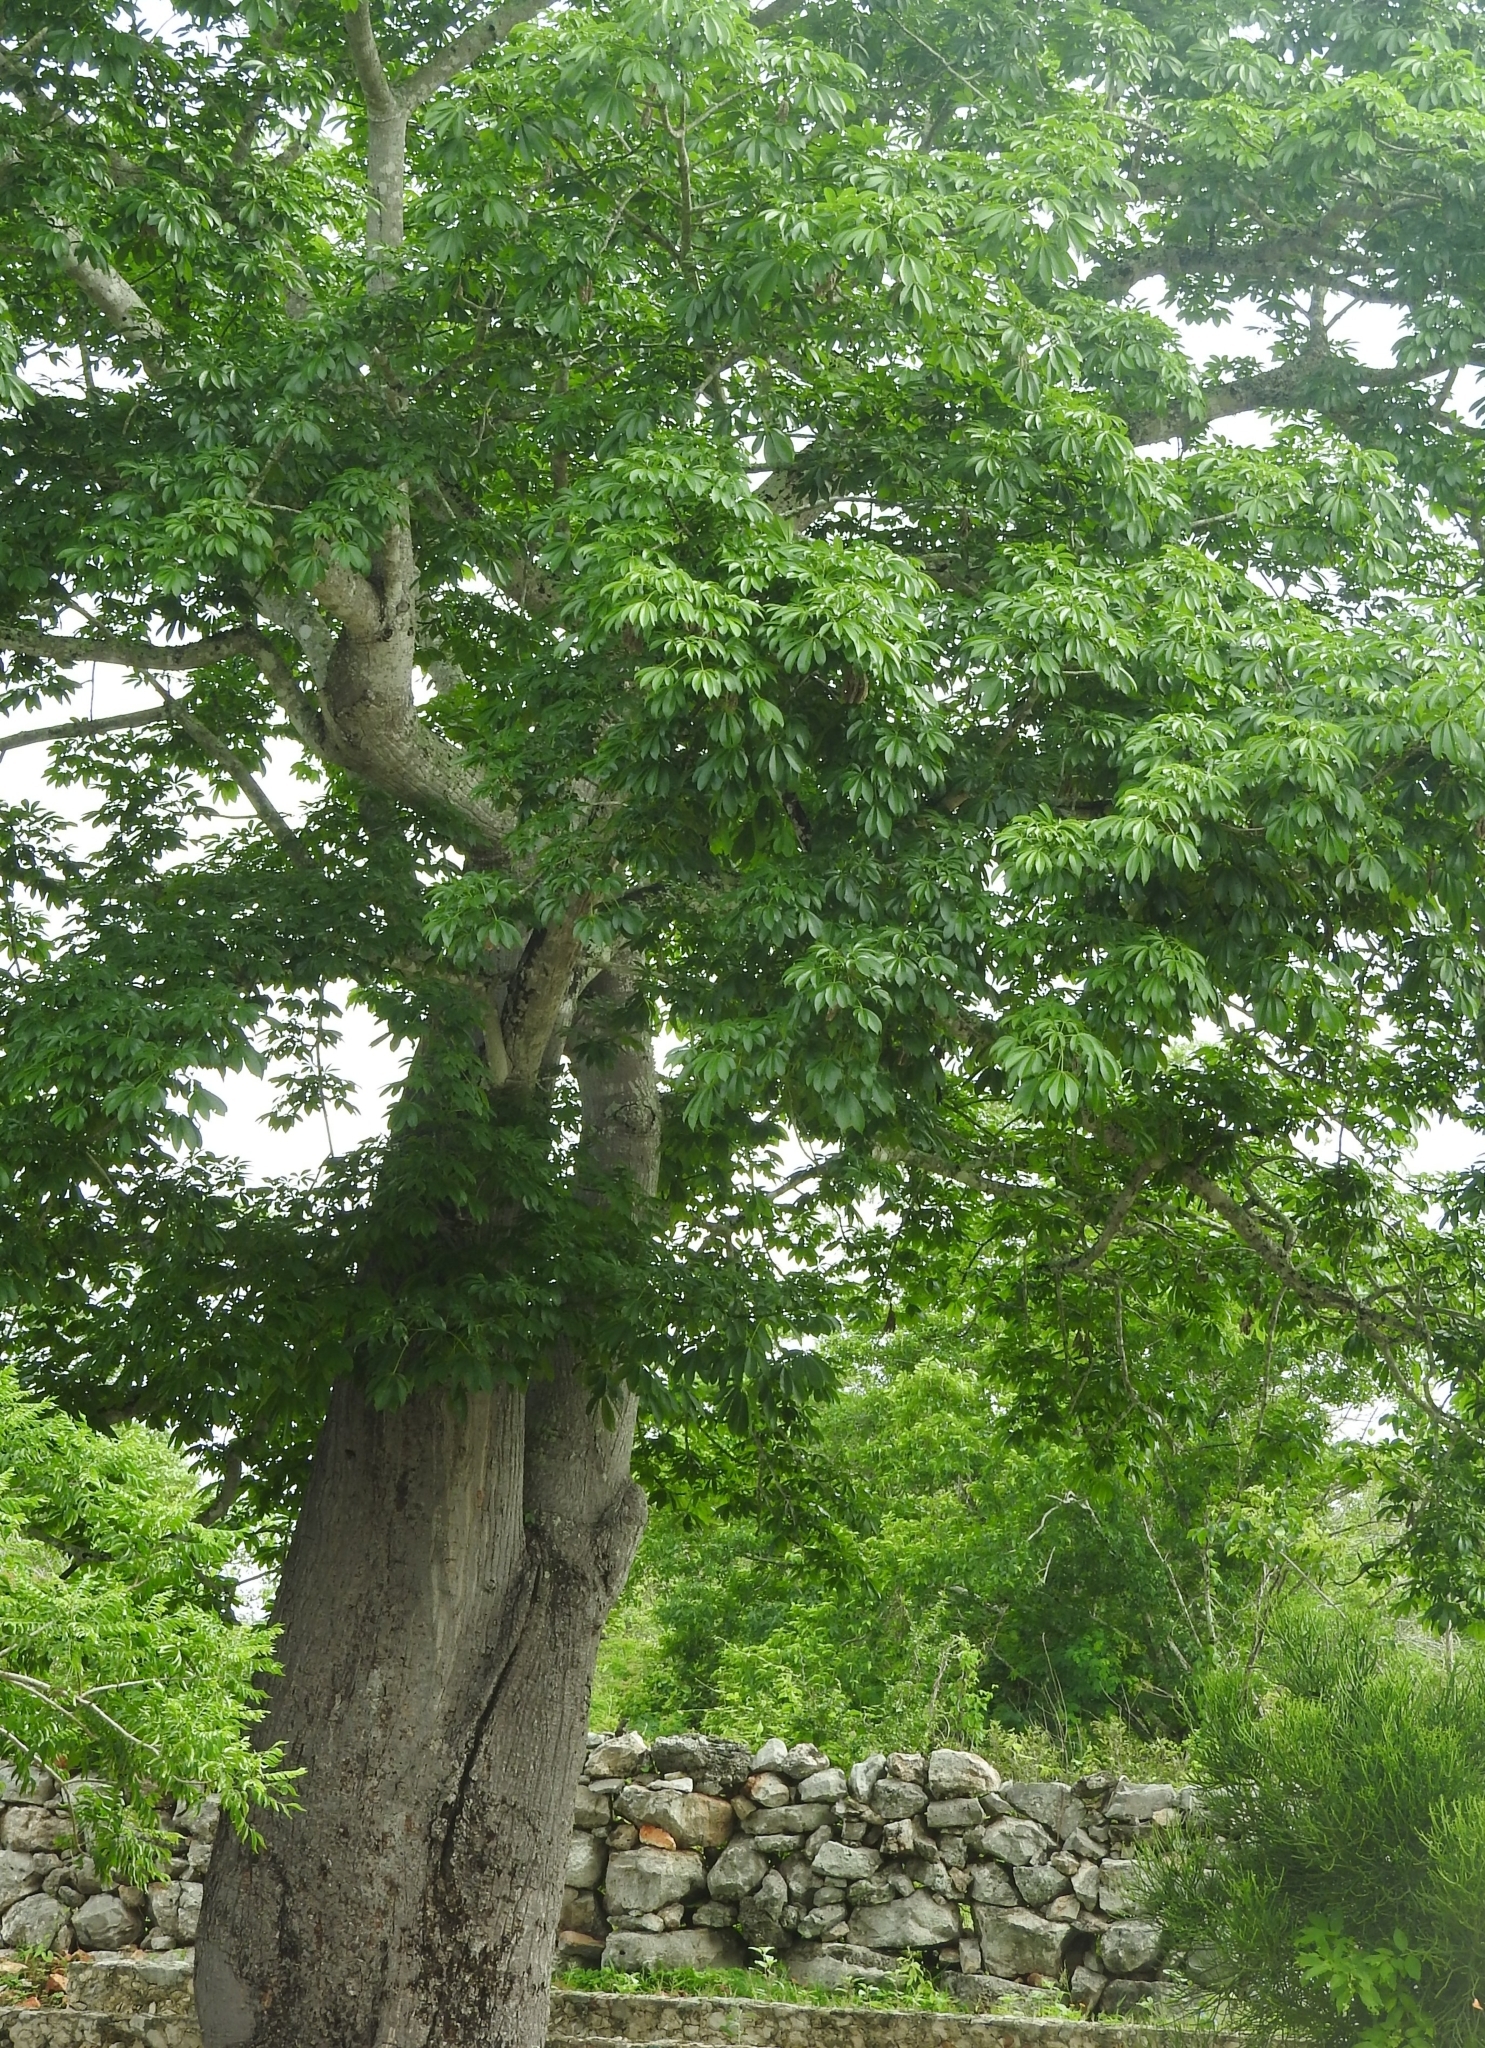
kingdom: Plantae
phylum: Tracheophyta
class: Magnoliopsida
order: Malvales
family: Malvaceae
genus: Ceiba
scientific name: Ceiba pentandra
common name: Kapok
